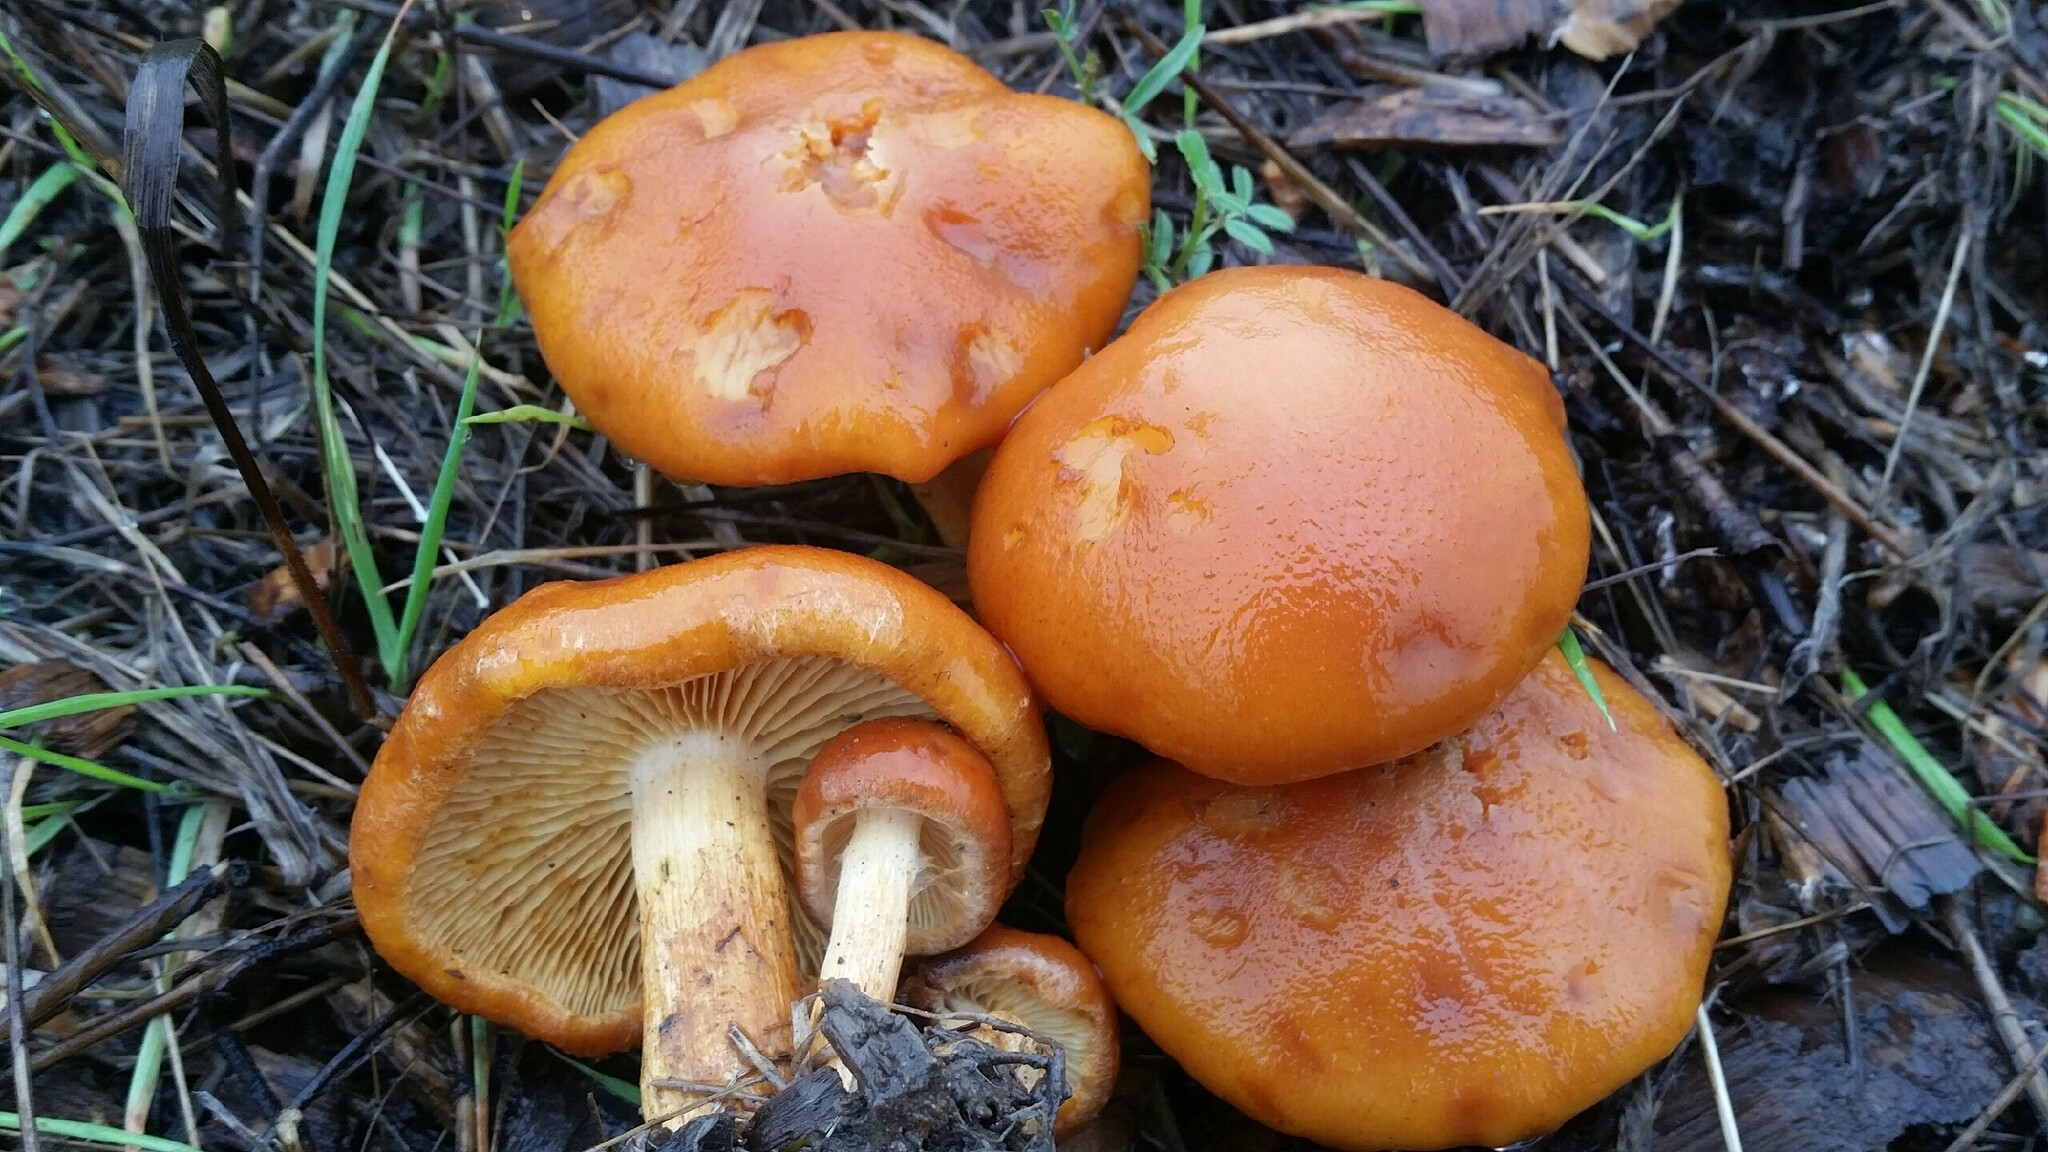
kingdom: Fungi
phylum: Basidiomycota
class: Agaricomycetes
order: Agaricales
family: Hymenogastraceae
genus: Gymnopilus
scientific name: Gymnopilus aurantiophyllus
